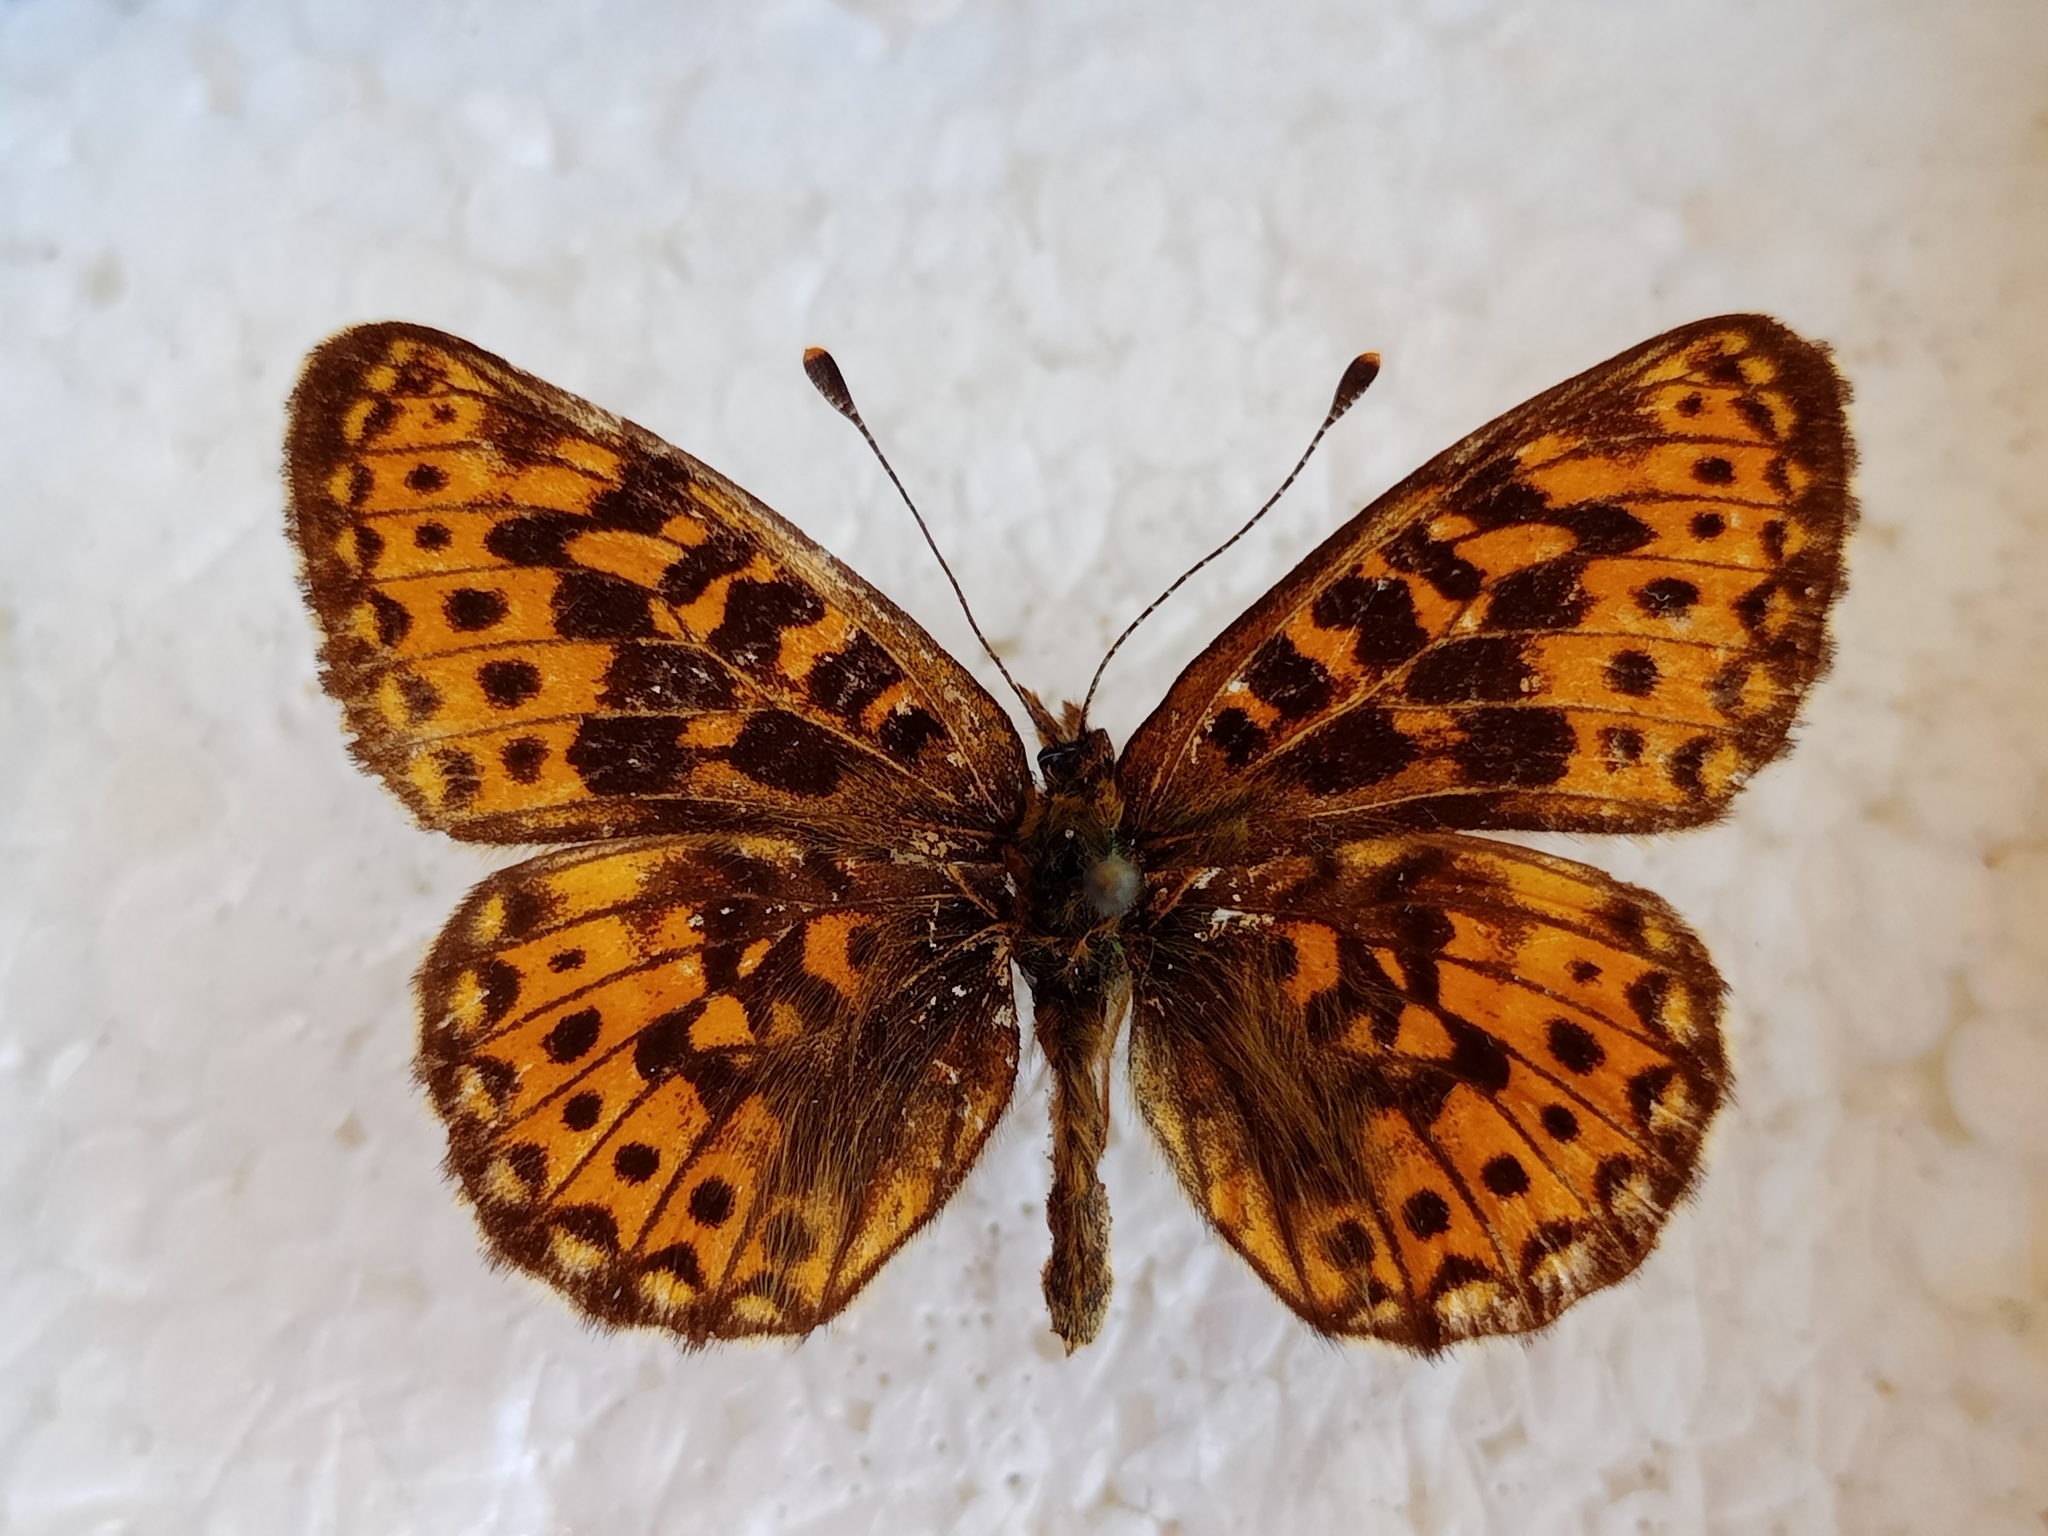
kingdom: Animalia
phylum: Arthropoda
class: Insecta
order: Lepidoptera
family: Nymphalidae
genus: Clossiana
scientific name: Clossiana euphrosyne
